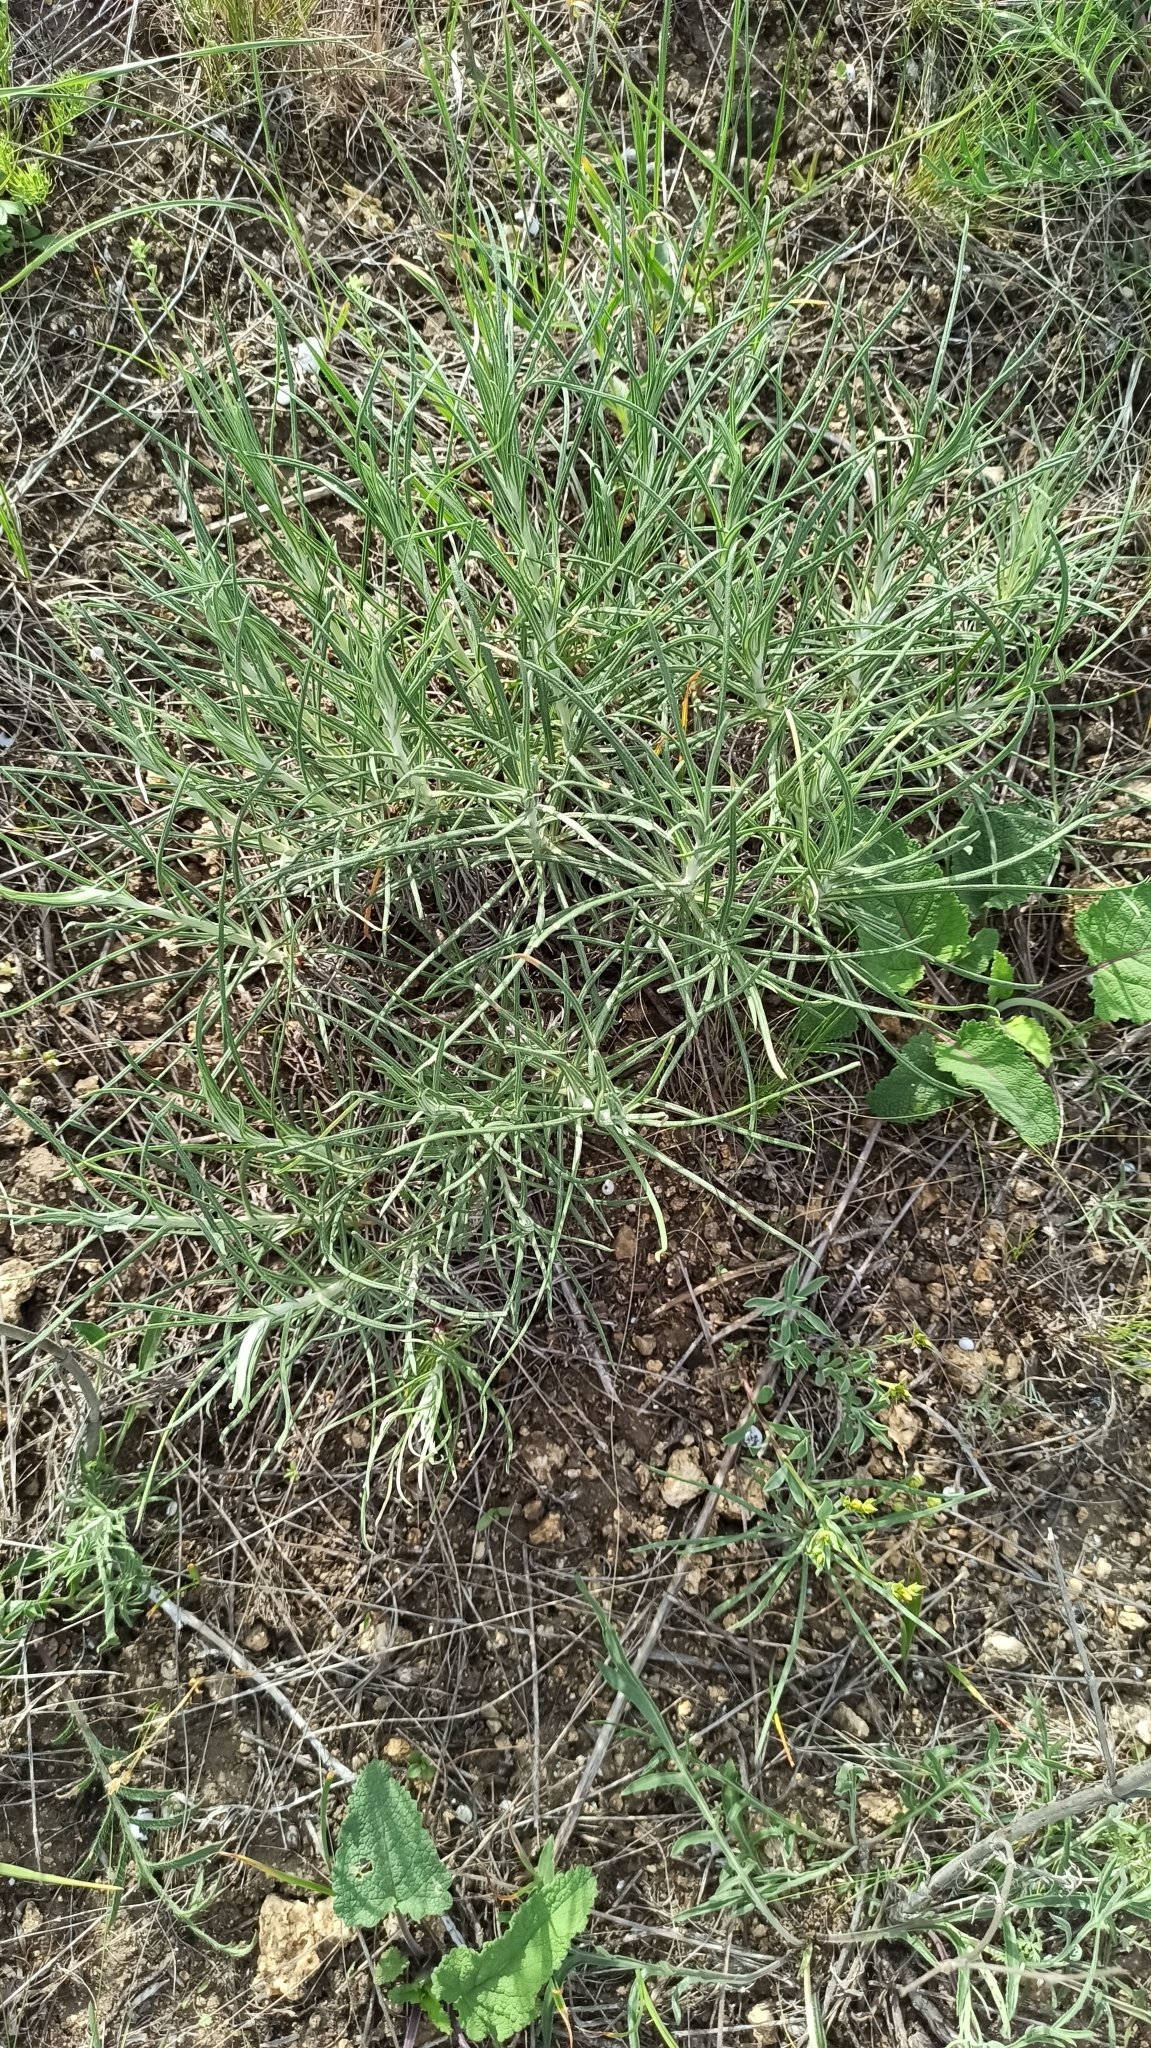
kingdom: Plantae
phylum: Tracheophyta
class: Magnoliopsida
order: Asterales
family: Asteraceae
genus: Jurinea
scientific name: Jurinea stoechadifolia
